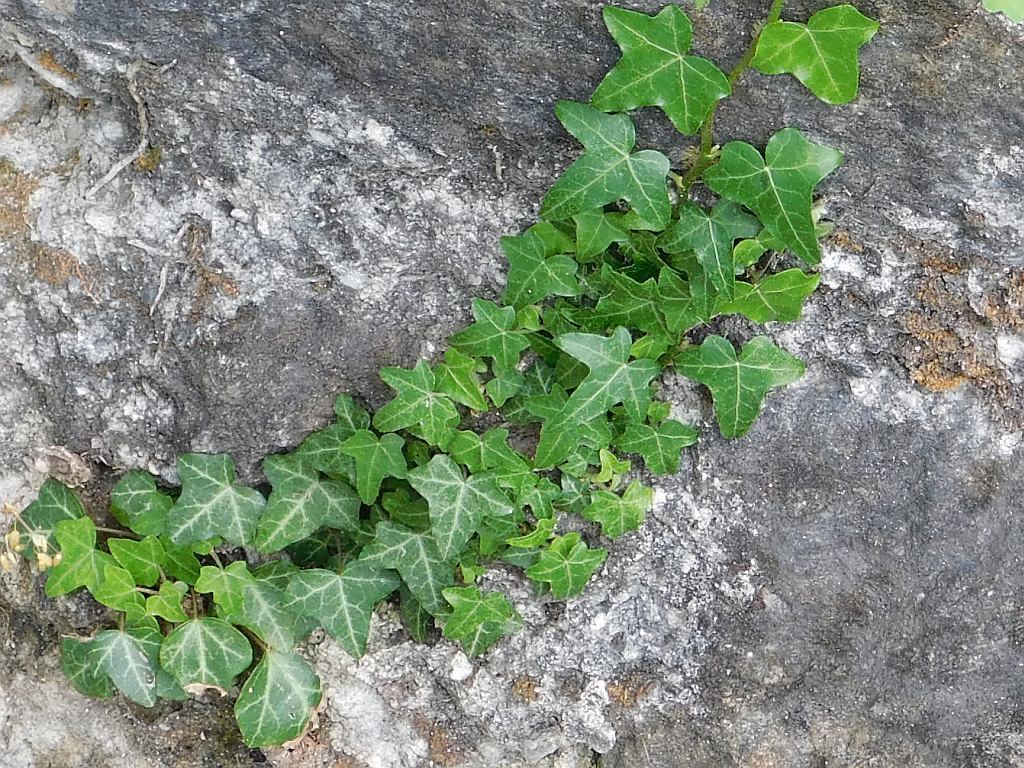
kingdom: Plantae
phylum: Tracheophyta
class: Magnoliopsida
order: Apiales
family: Araliaceae
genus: Hedera
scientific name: Hedera helix
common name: Ivy
